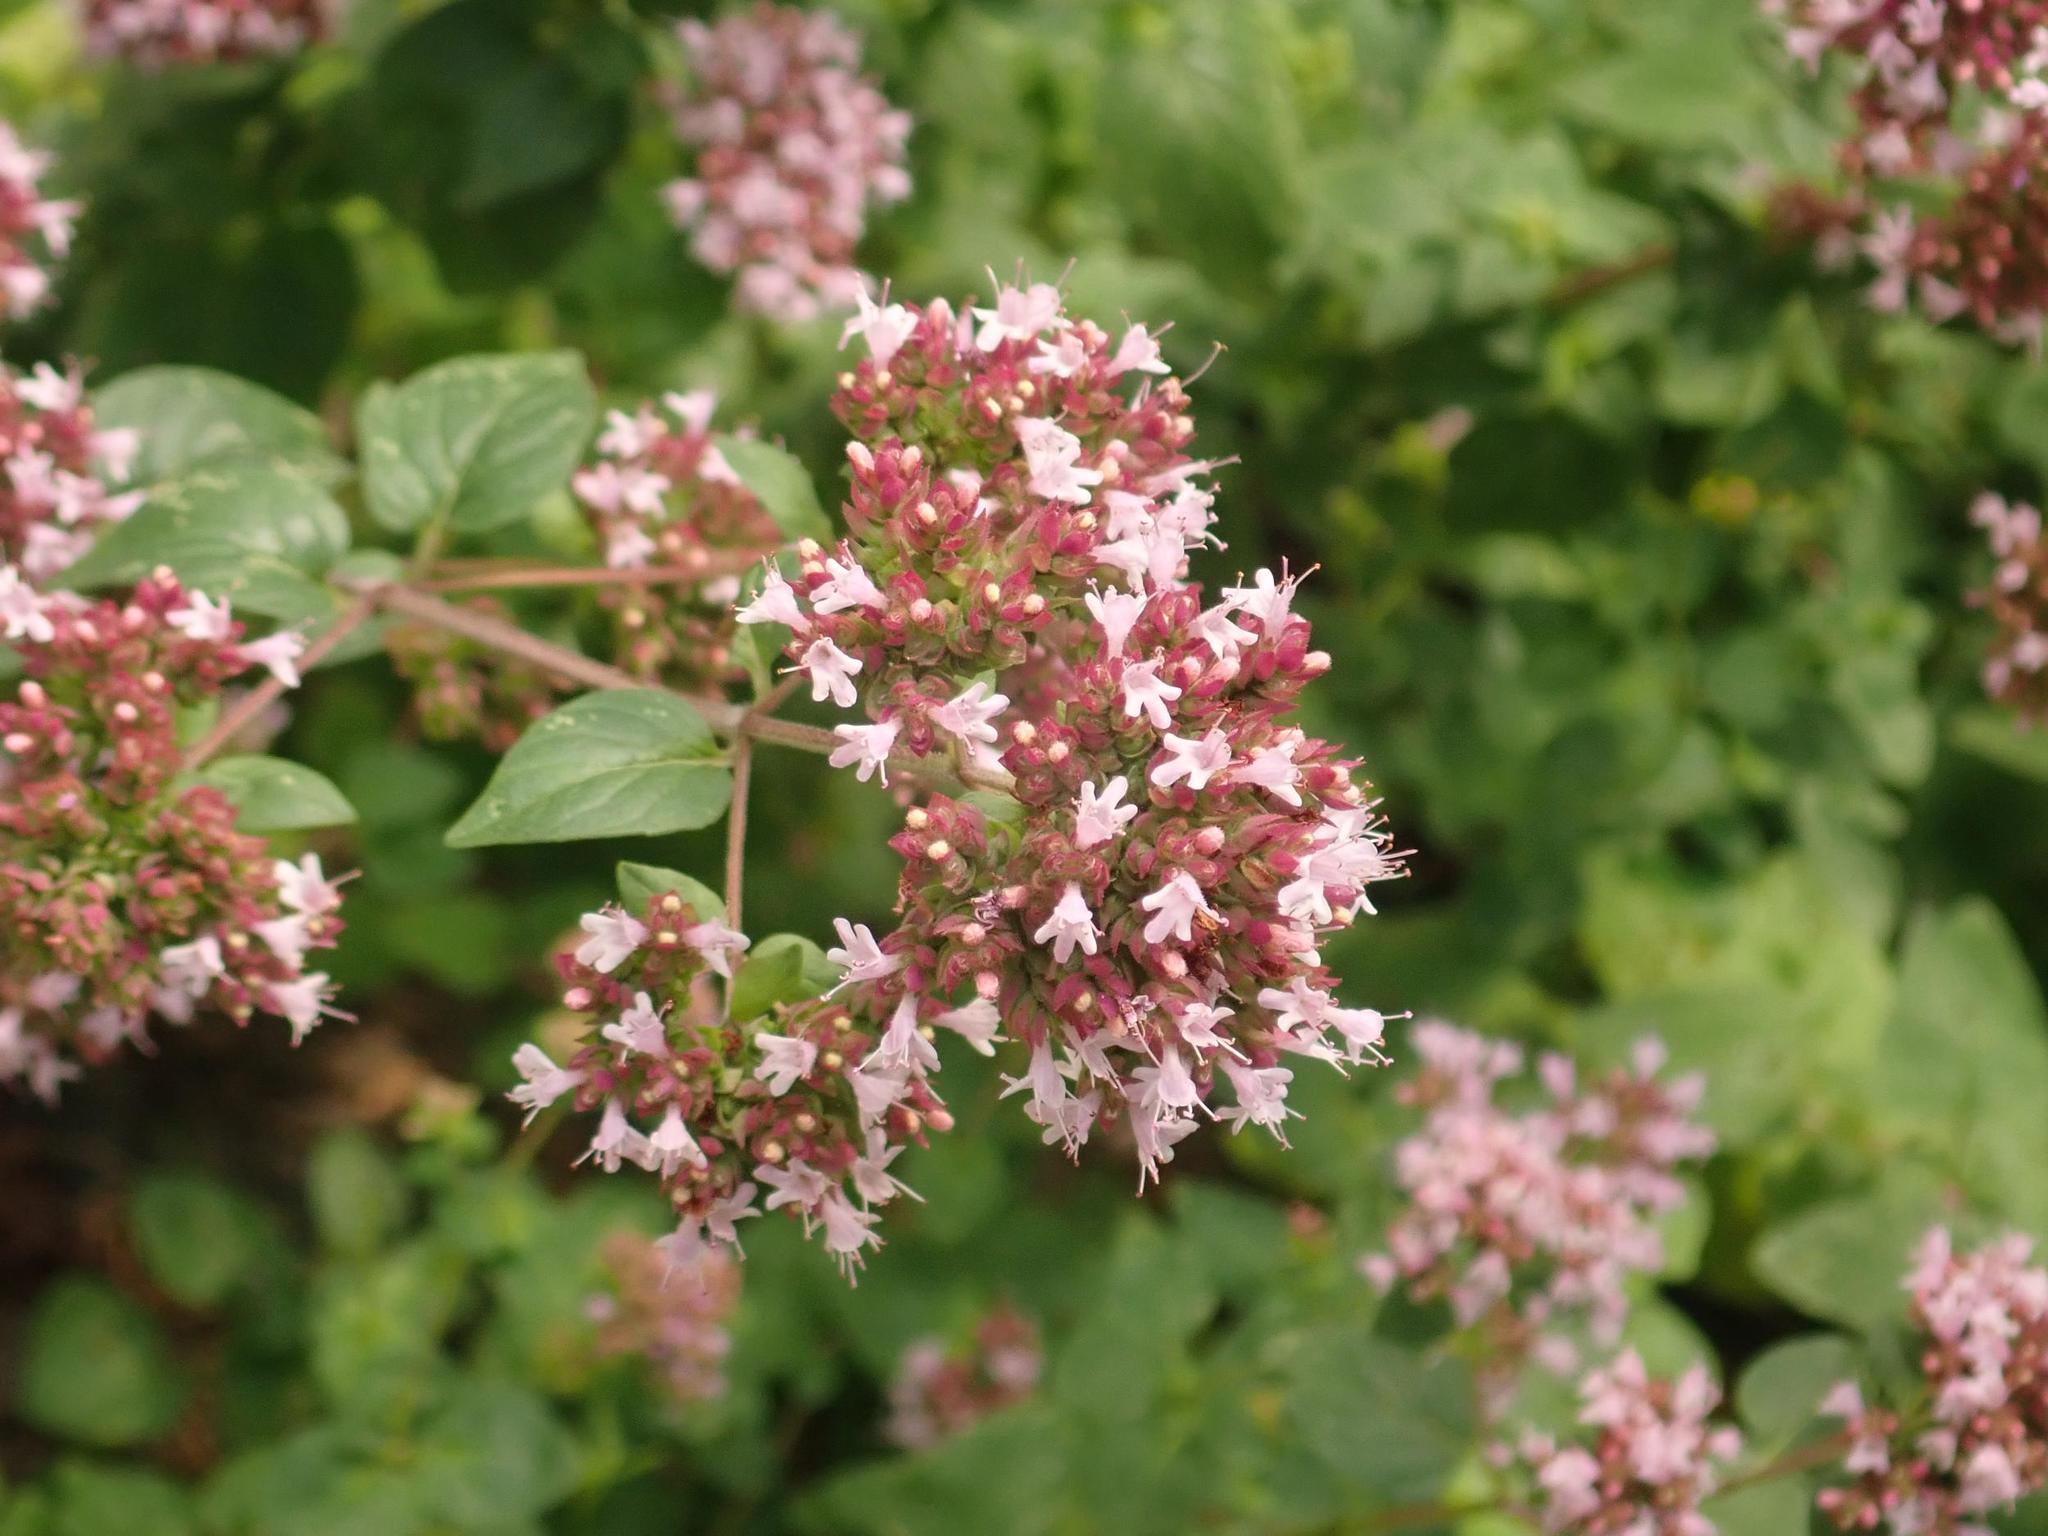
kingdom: Plantae
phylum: Tracheophyta
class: Magnoliopsida
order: Lamiales
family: Lamiaceae
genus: Origanum
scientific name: Origanum vulgare
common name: Wild marjoram
